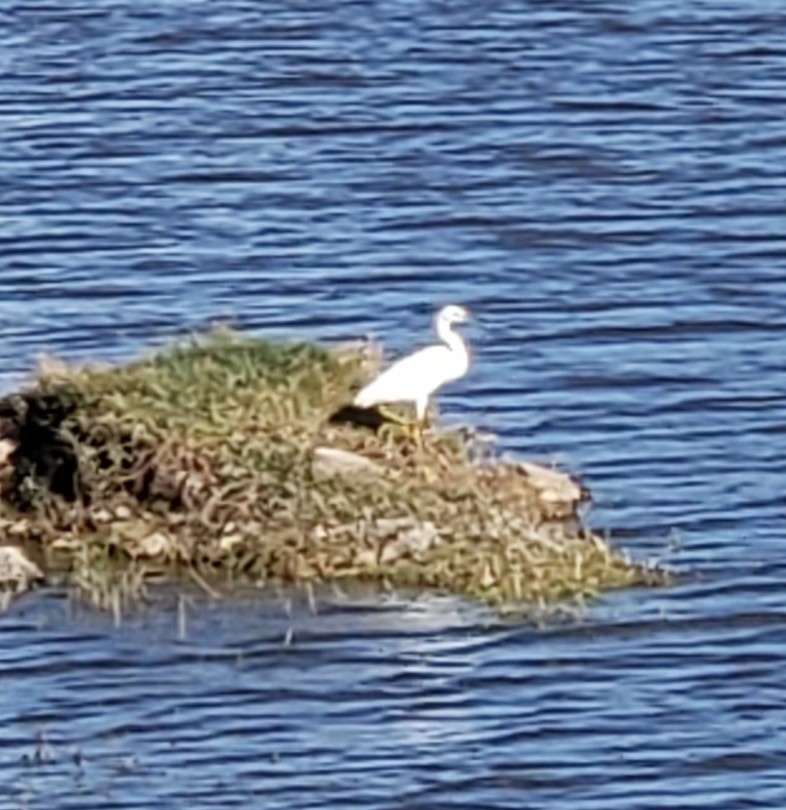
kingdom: Animalia
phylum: Chordata
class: Aves
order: Pelecaniformes
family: Ardeidae
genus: Egretta
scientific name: Egretta thula
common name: Snowy egret
